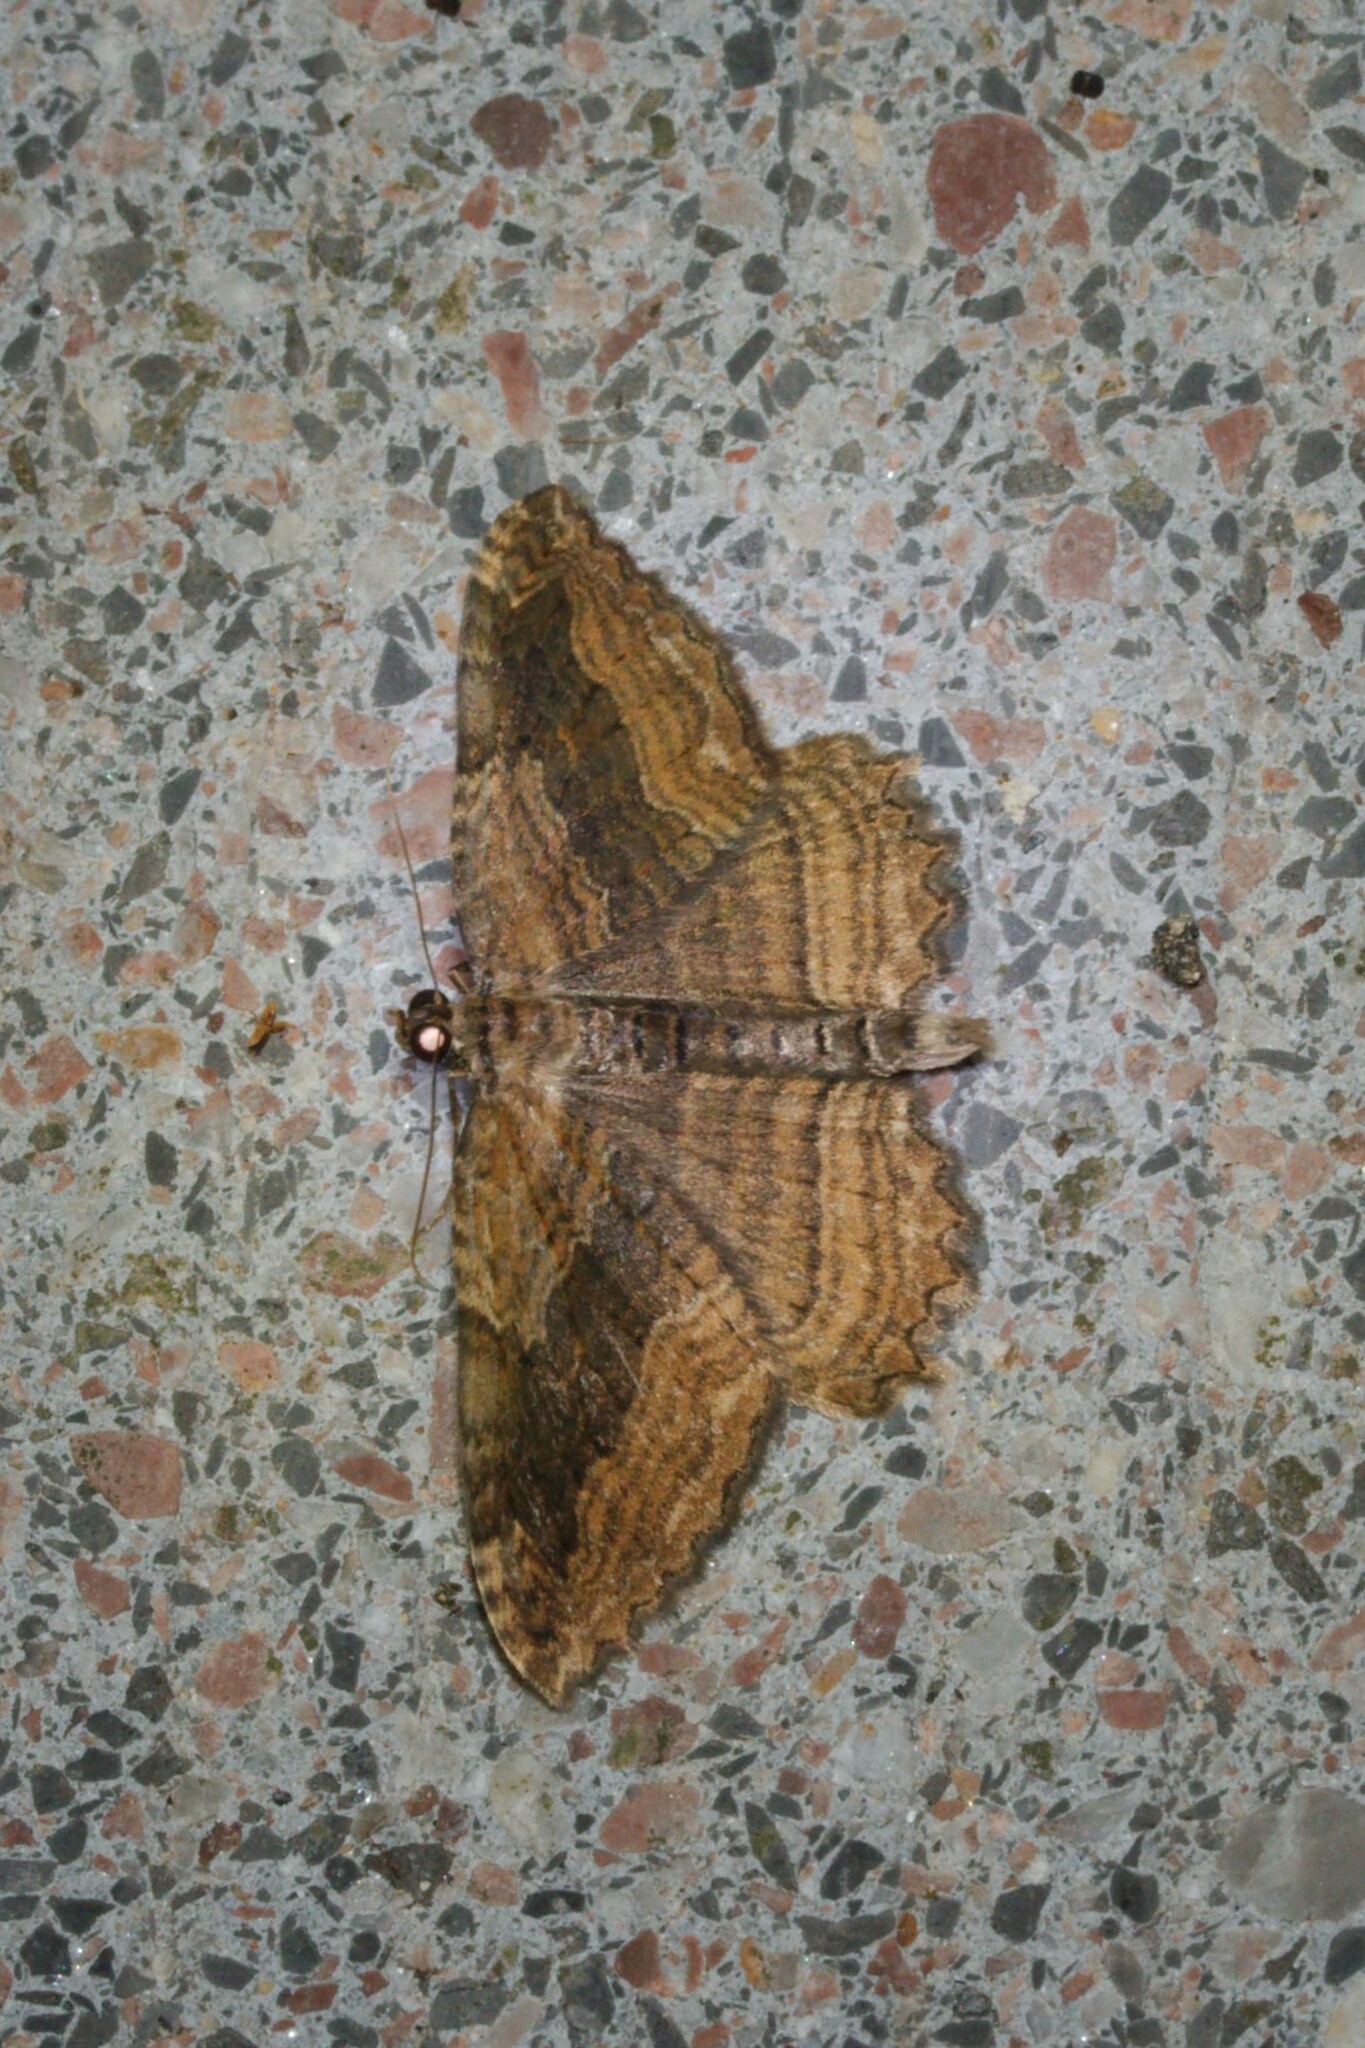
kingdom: Animalia
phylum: Arthropoda
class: Insecta
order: Lepidoptera
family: Geometridae
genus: Philereme
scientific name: Philereme transversata
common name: Dark umber
